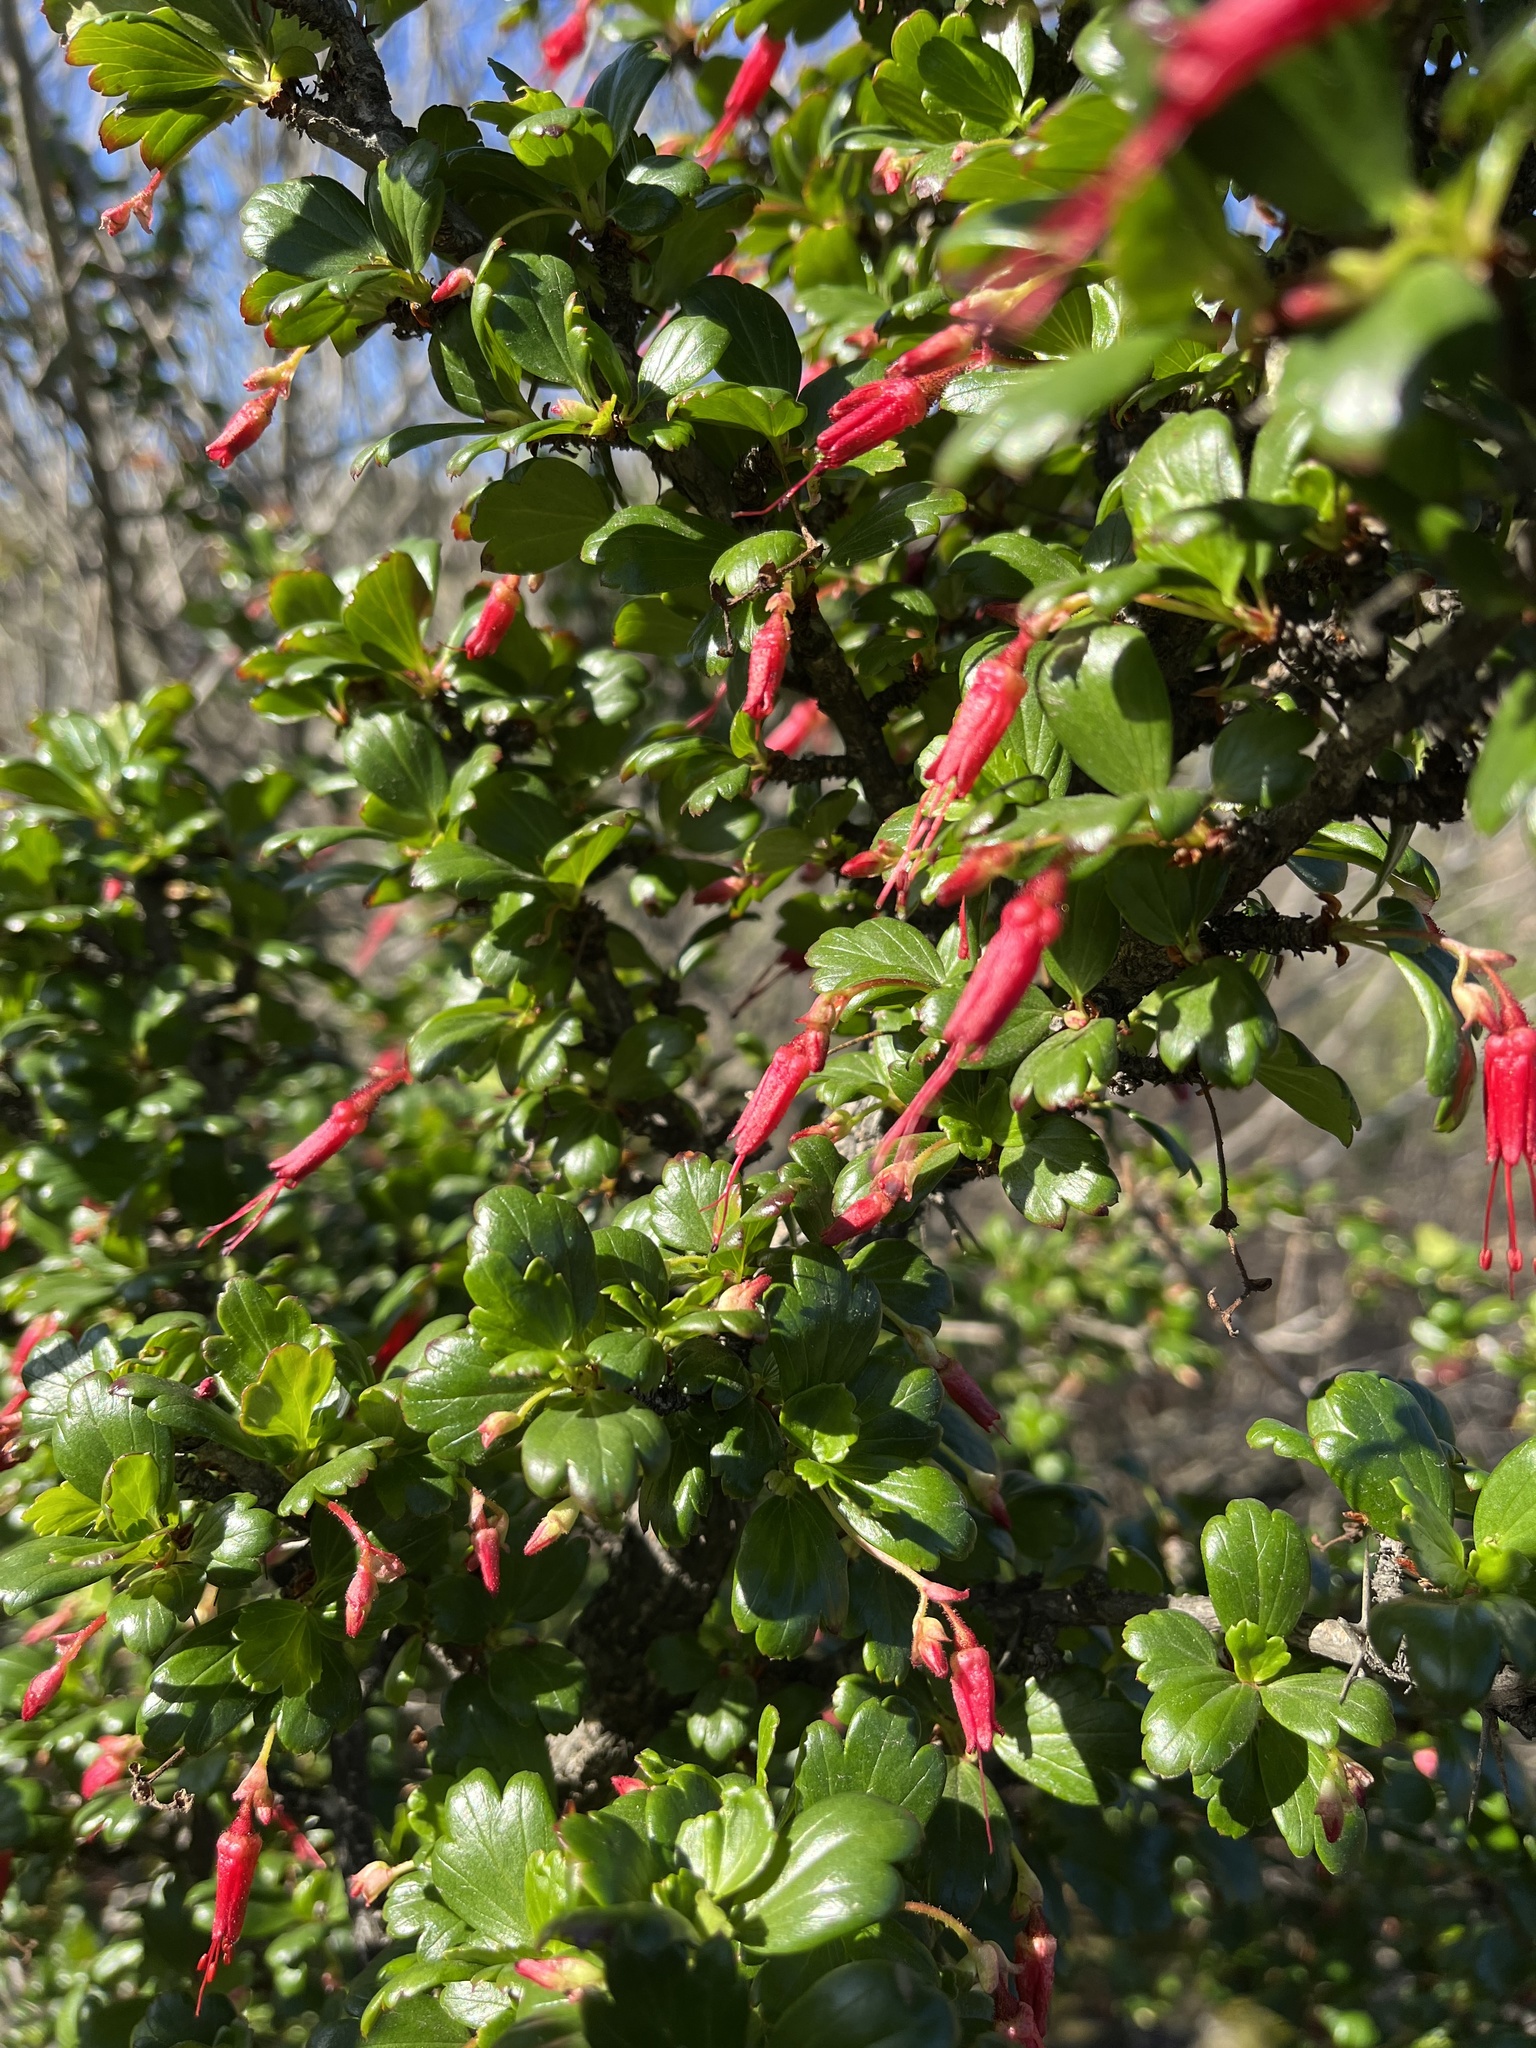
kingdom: Plantae
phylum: Tracheophyta
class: Magnoliopsida
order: Saxifragales
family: Grossulariaceae
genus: Ribes
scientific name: Ribes speciosum
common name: Fuchsia-flower gooseberry
